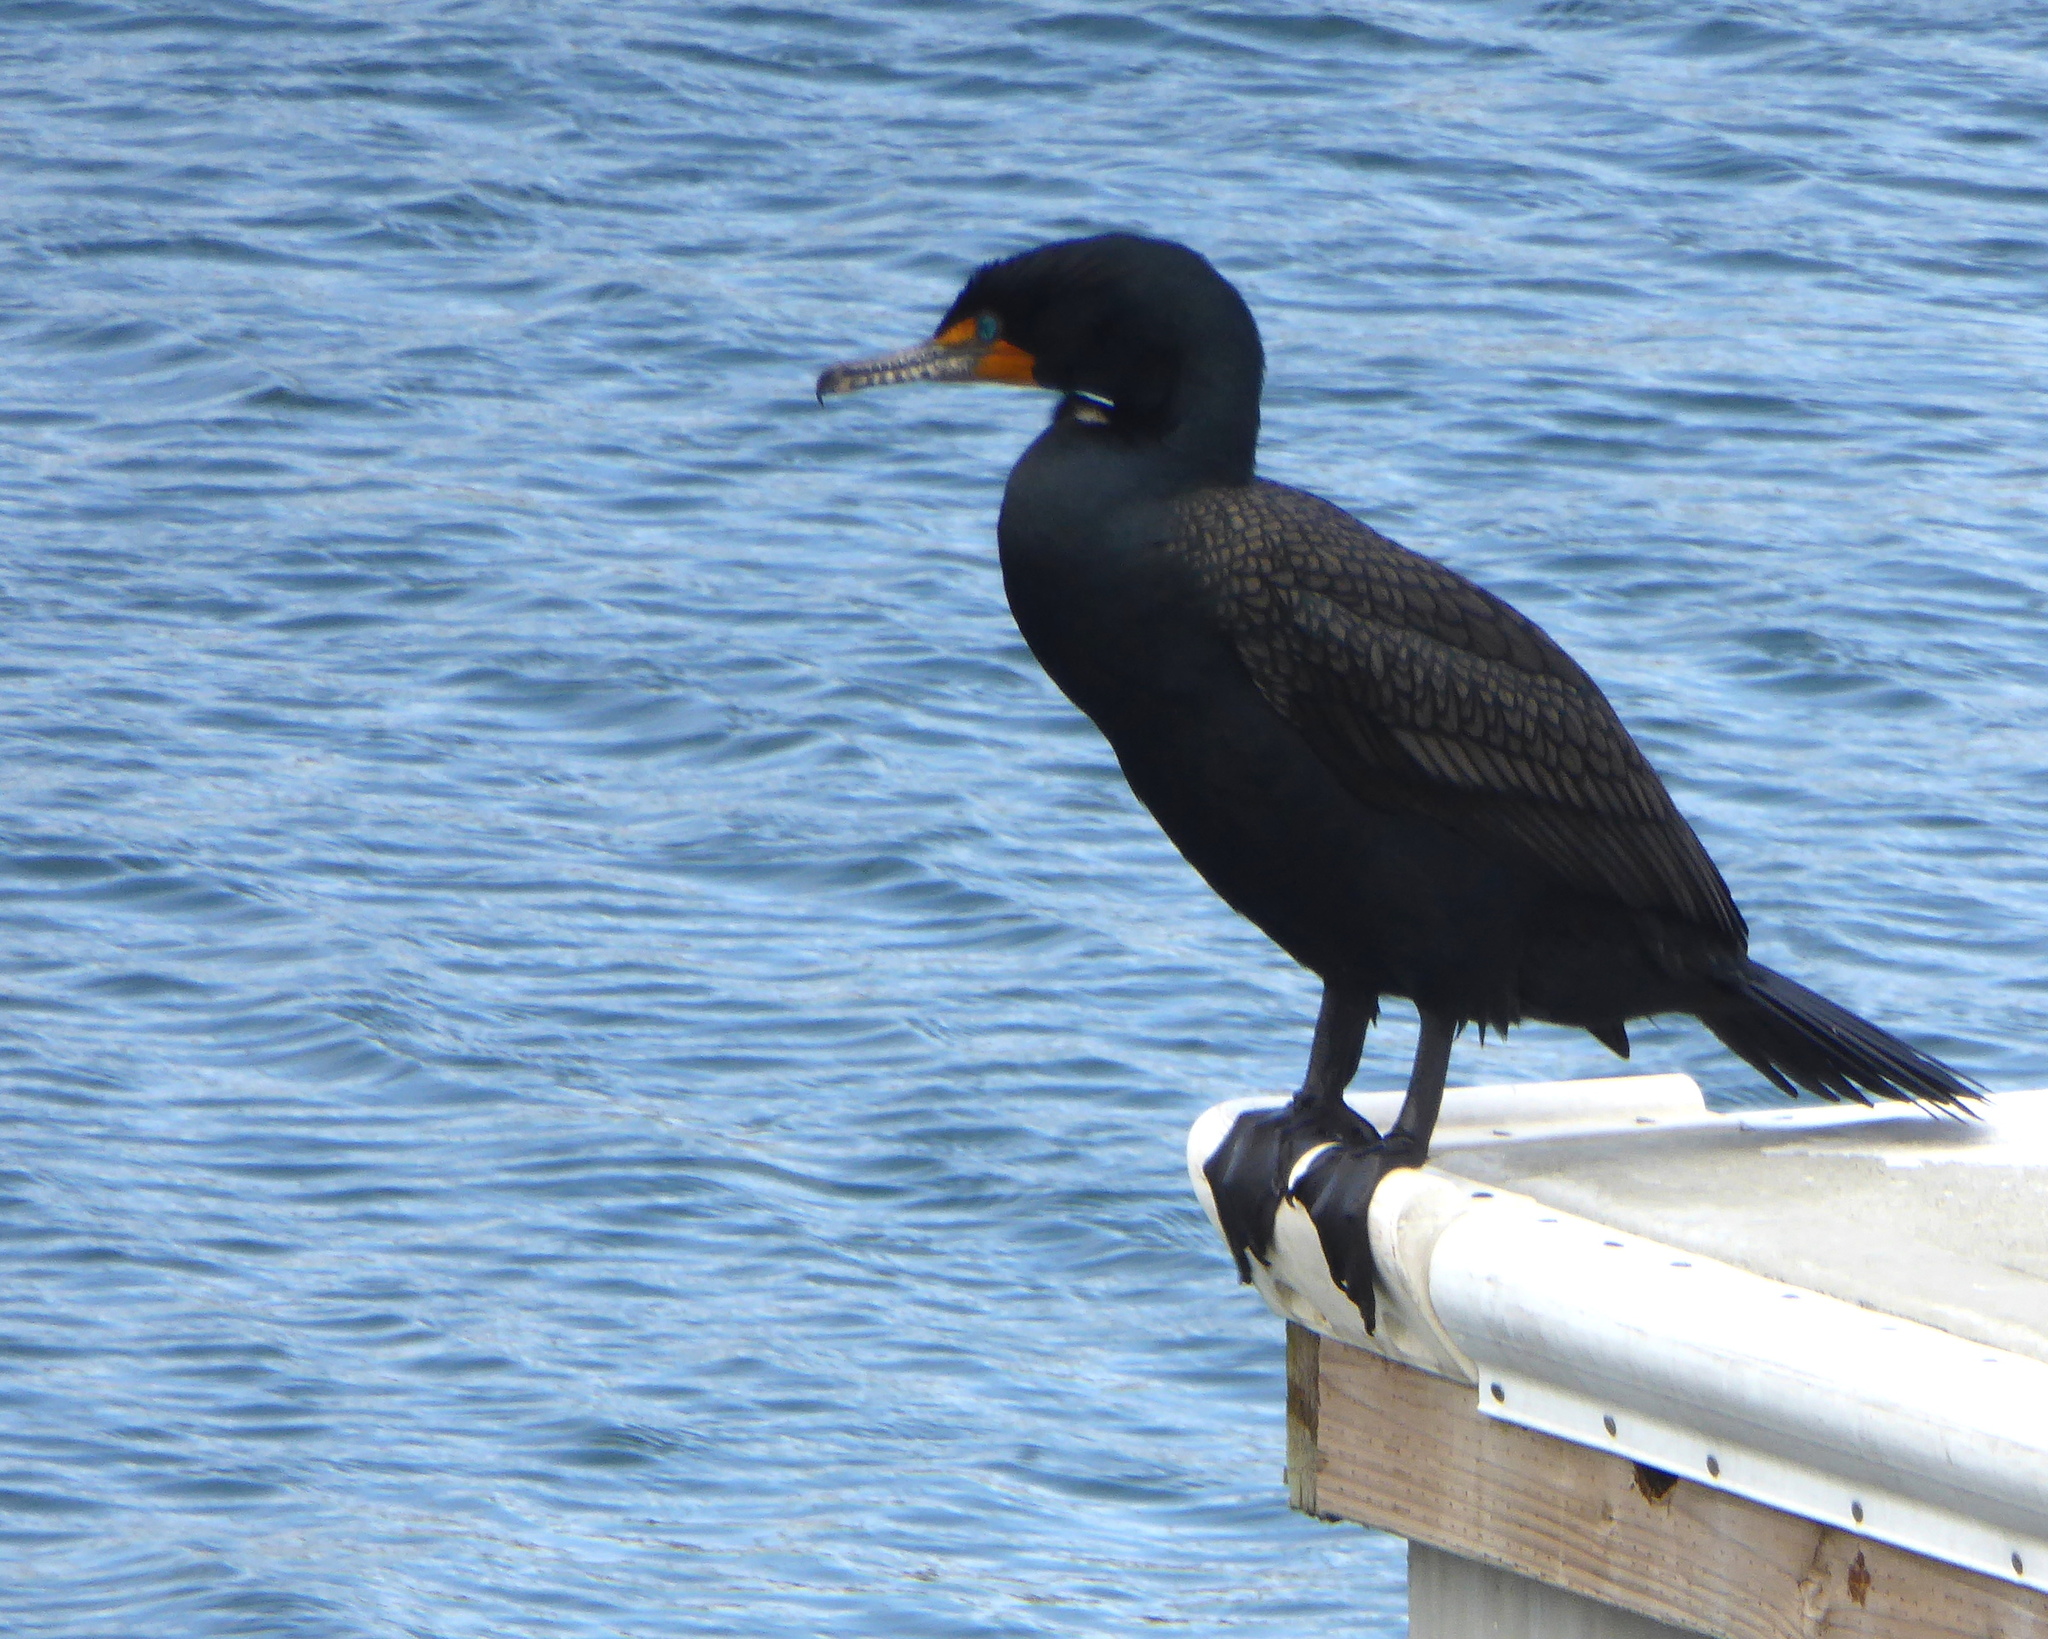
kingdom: Animalia
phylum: Chordata
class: Aves
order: Suliformes
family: Phalacrocoracidae
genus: Phalacrocorax
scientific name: Phalacrocorax auritus
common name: Double-crested cormorant
